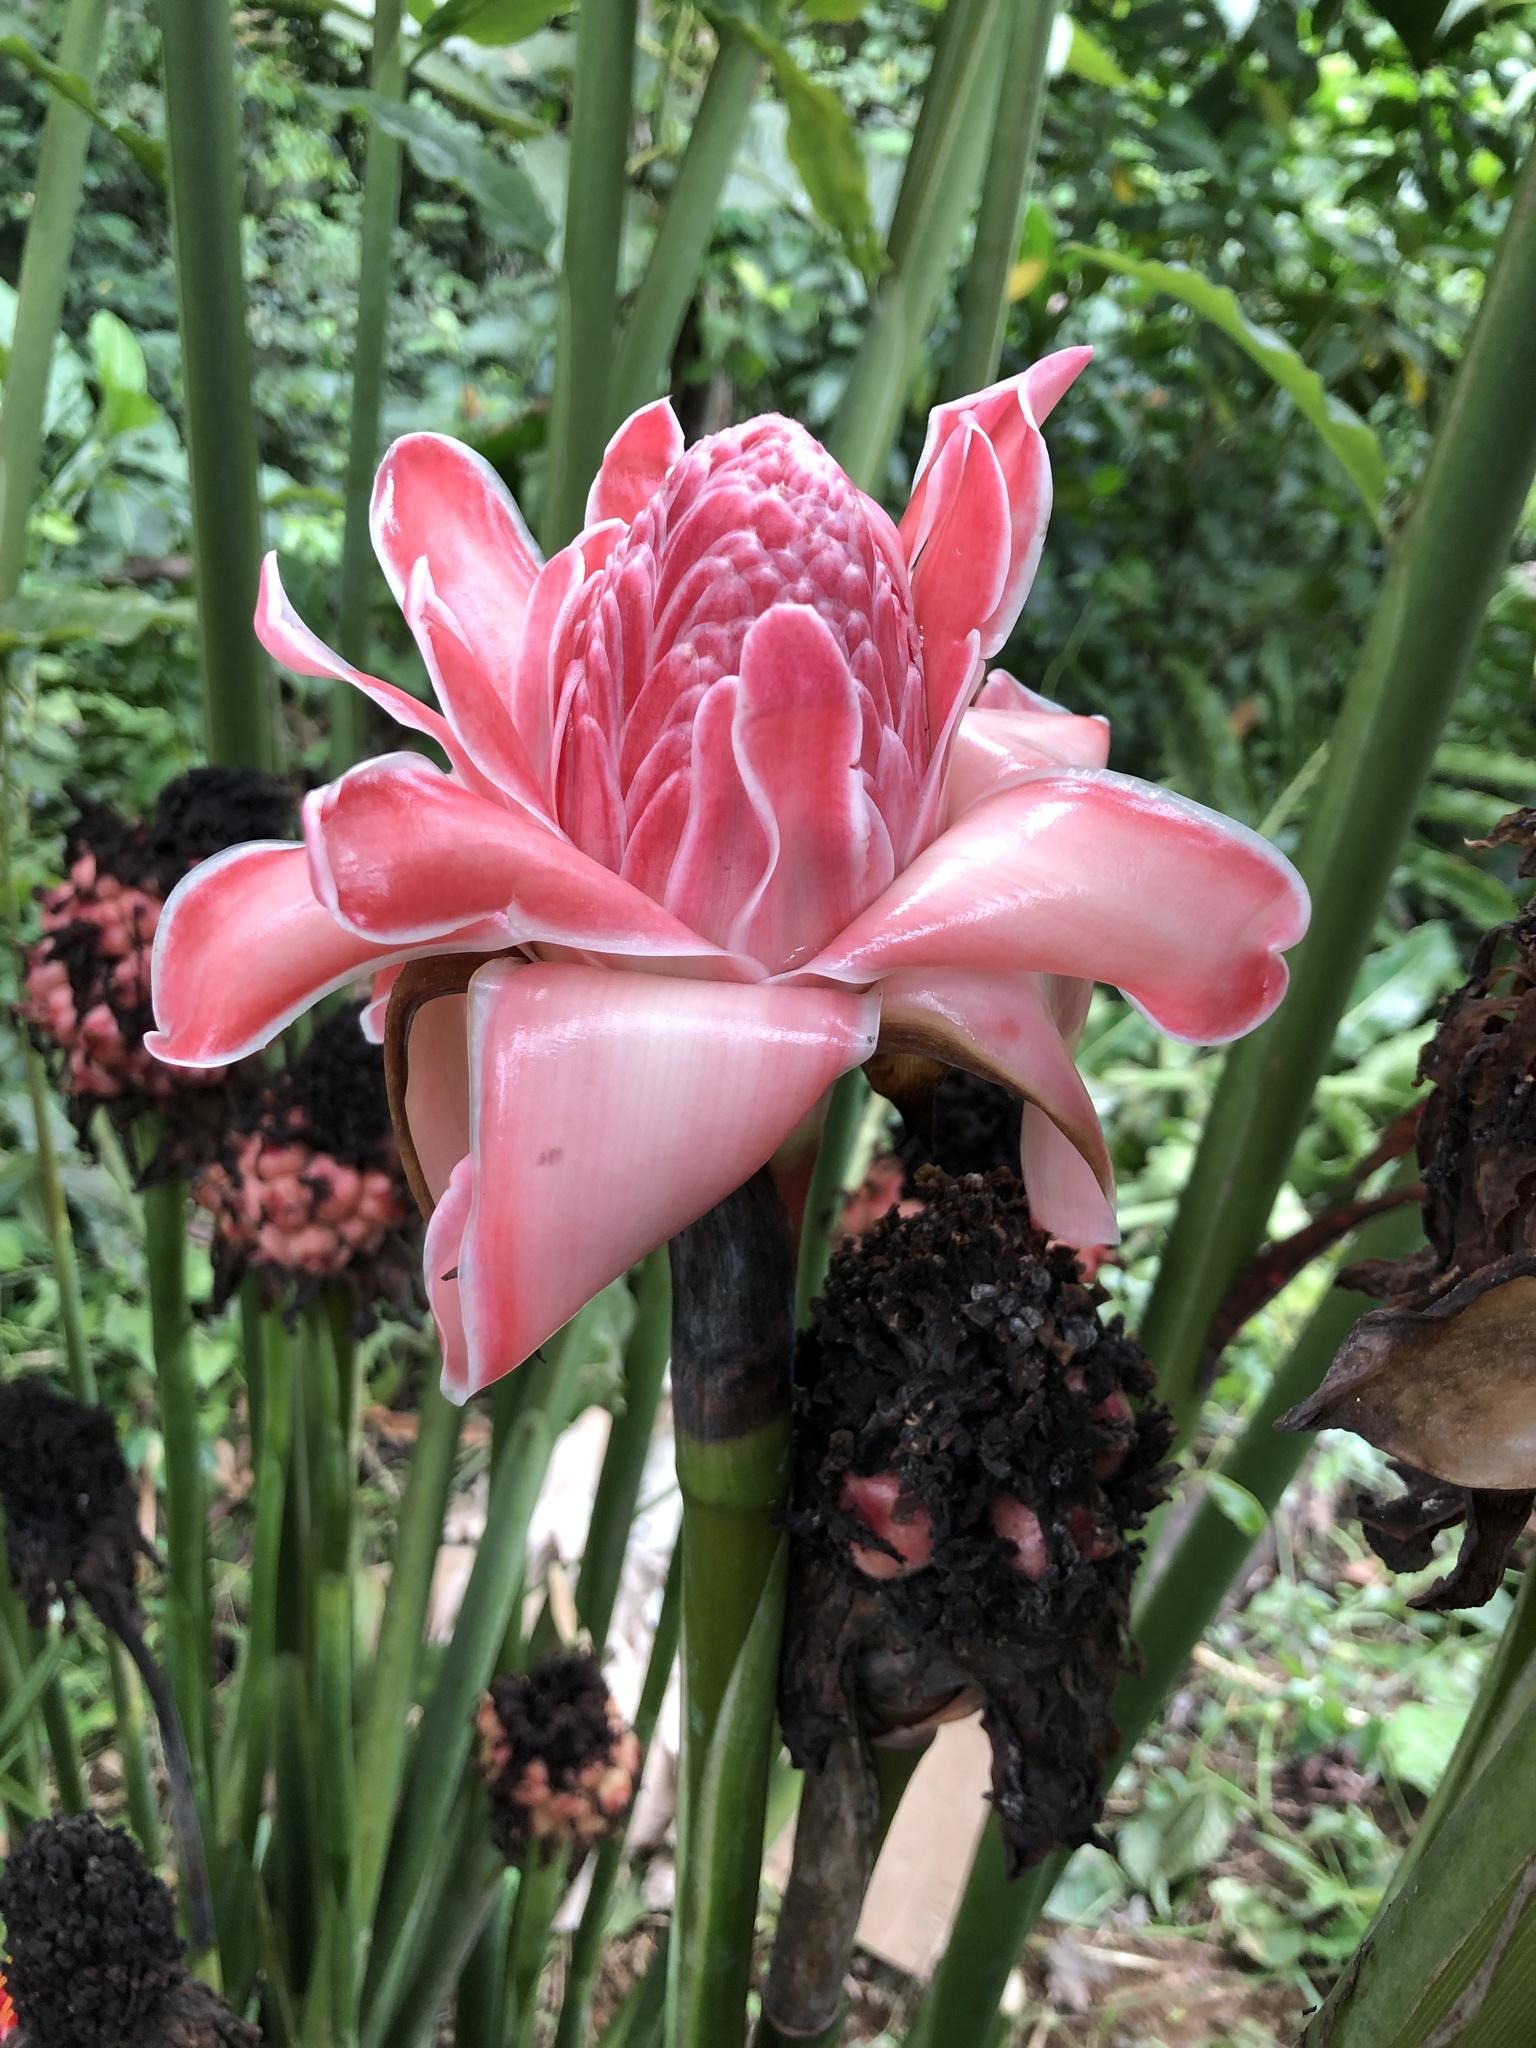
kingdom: Plantae
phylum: Tracheophyta
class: Liliopsida
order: Zingiberales
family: Zingiberaceae
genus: Etlingera
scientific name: Etlingera elatior
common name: Philippine waxflower
